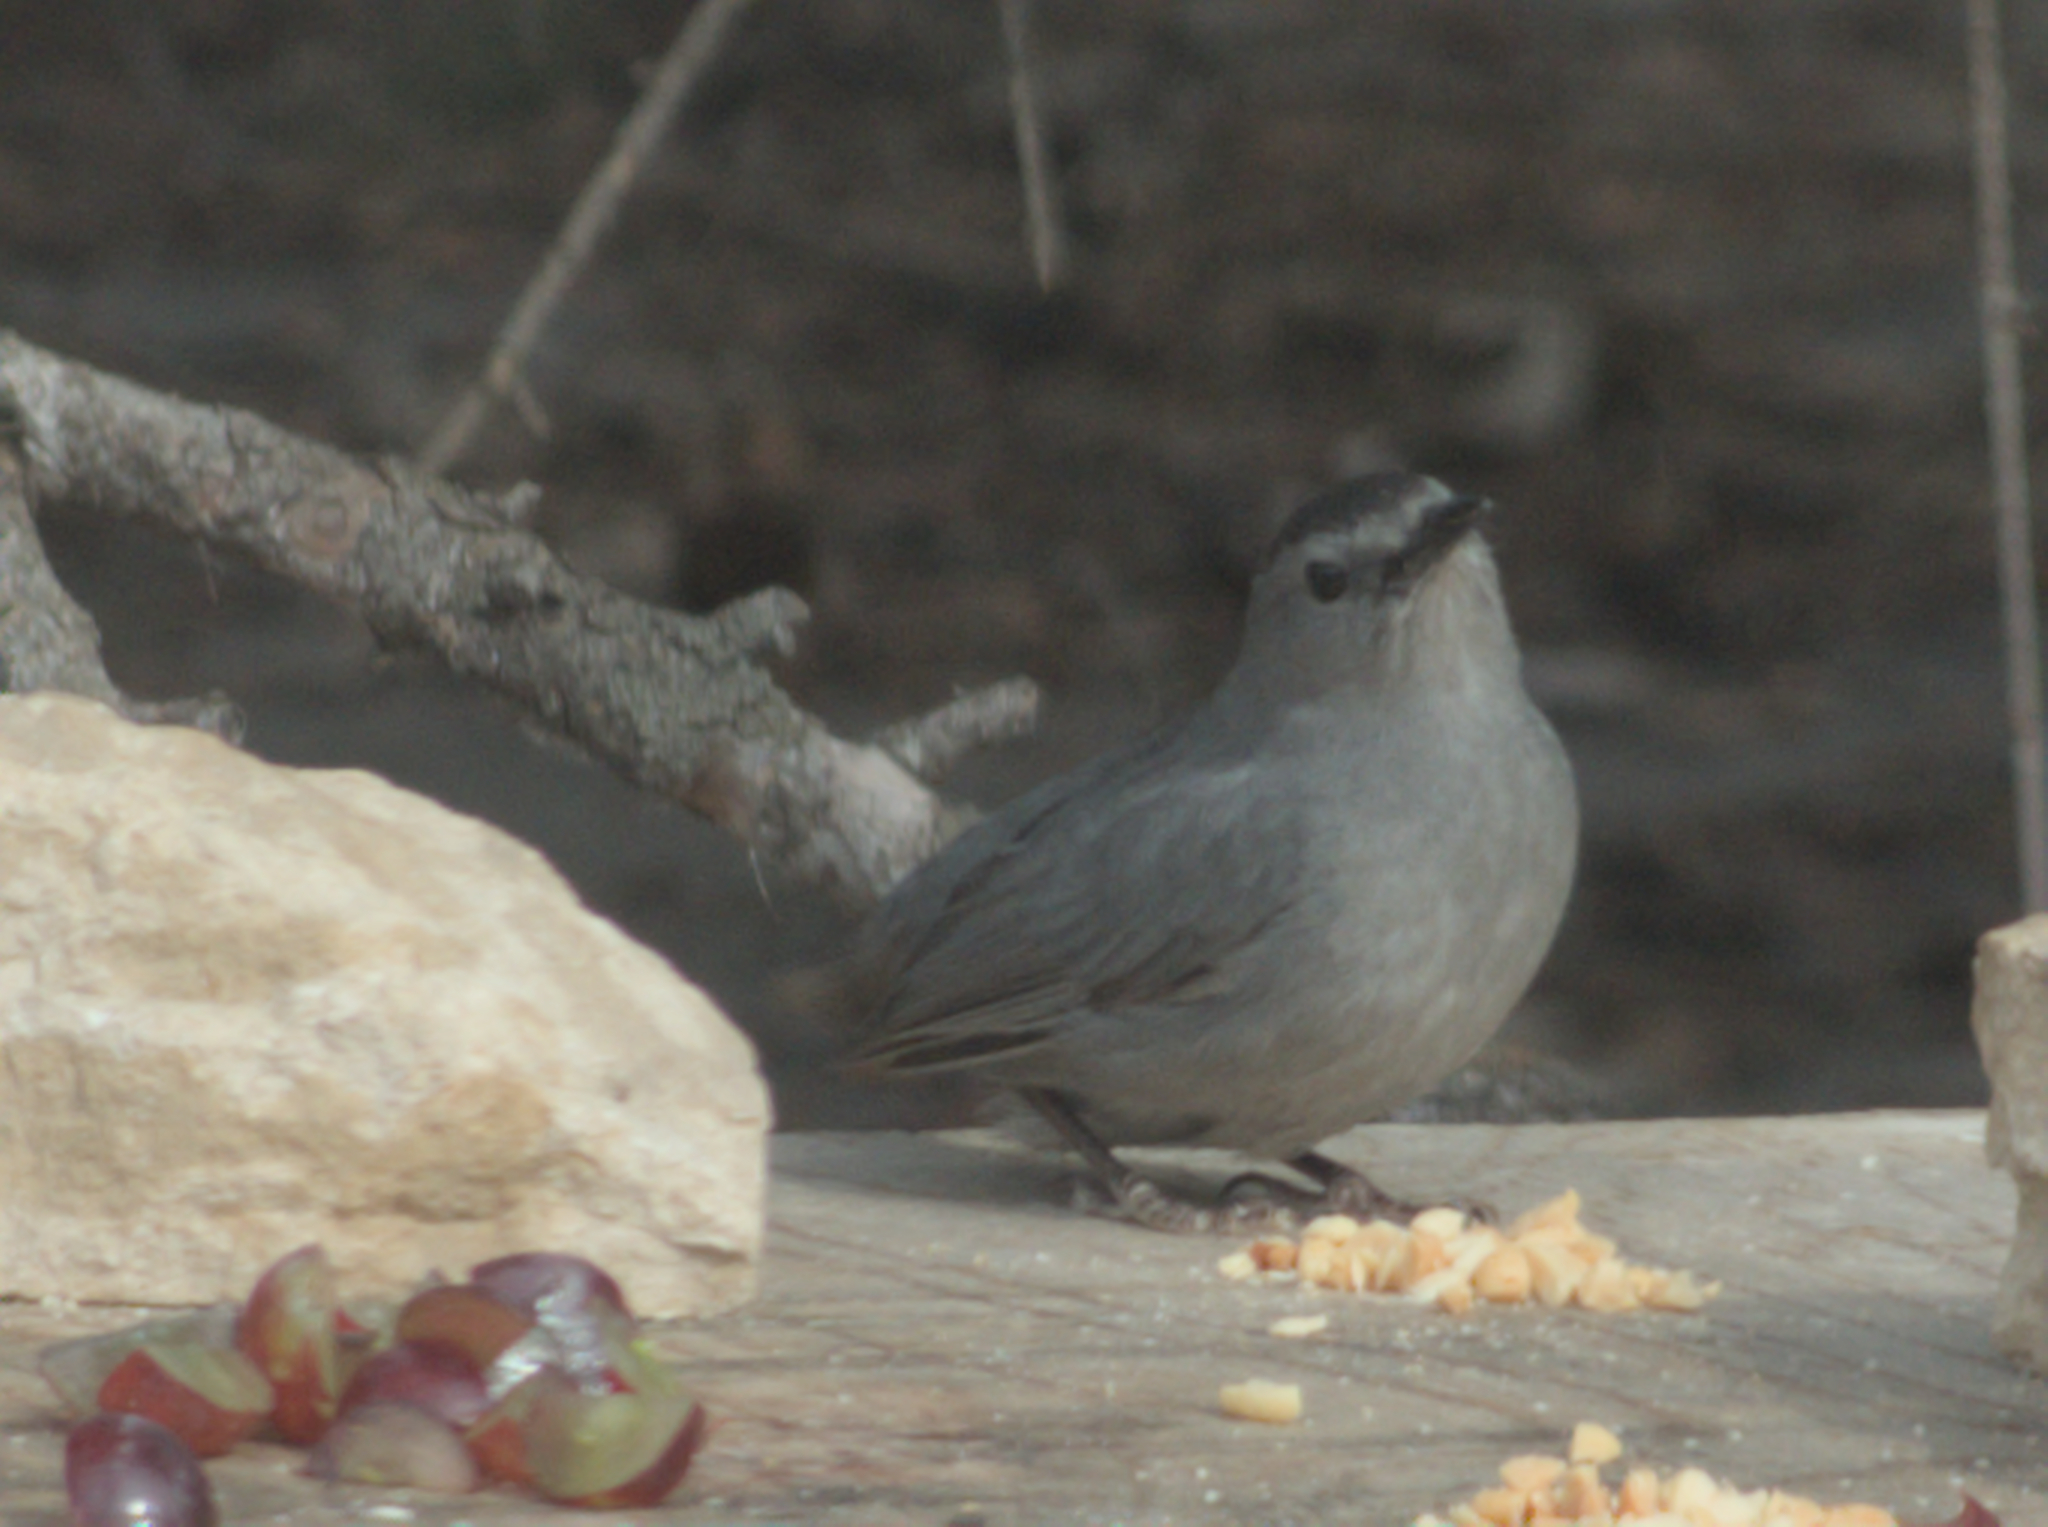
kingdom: Animalia
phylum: Chordata
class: Aves
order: Passeriformes
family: Mimidae
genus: Dumetella
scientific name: Dumetella carolinensis
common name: Gray catbird
